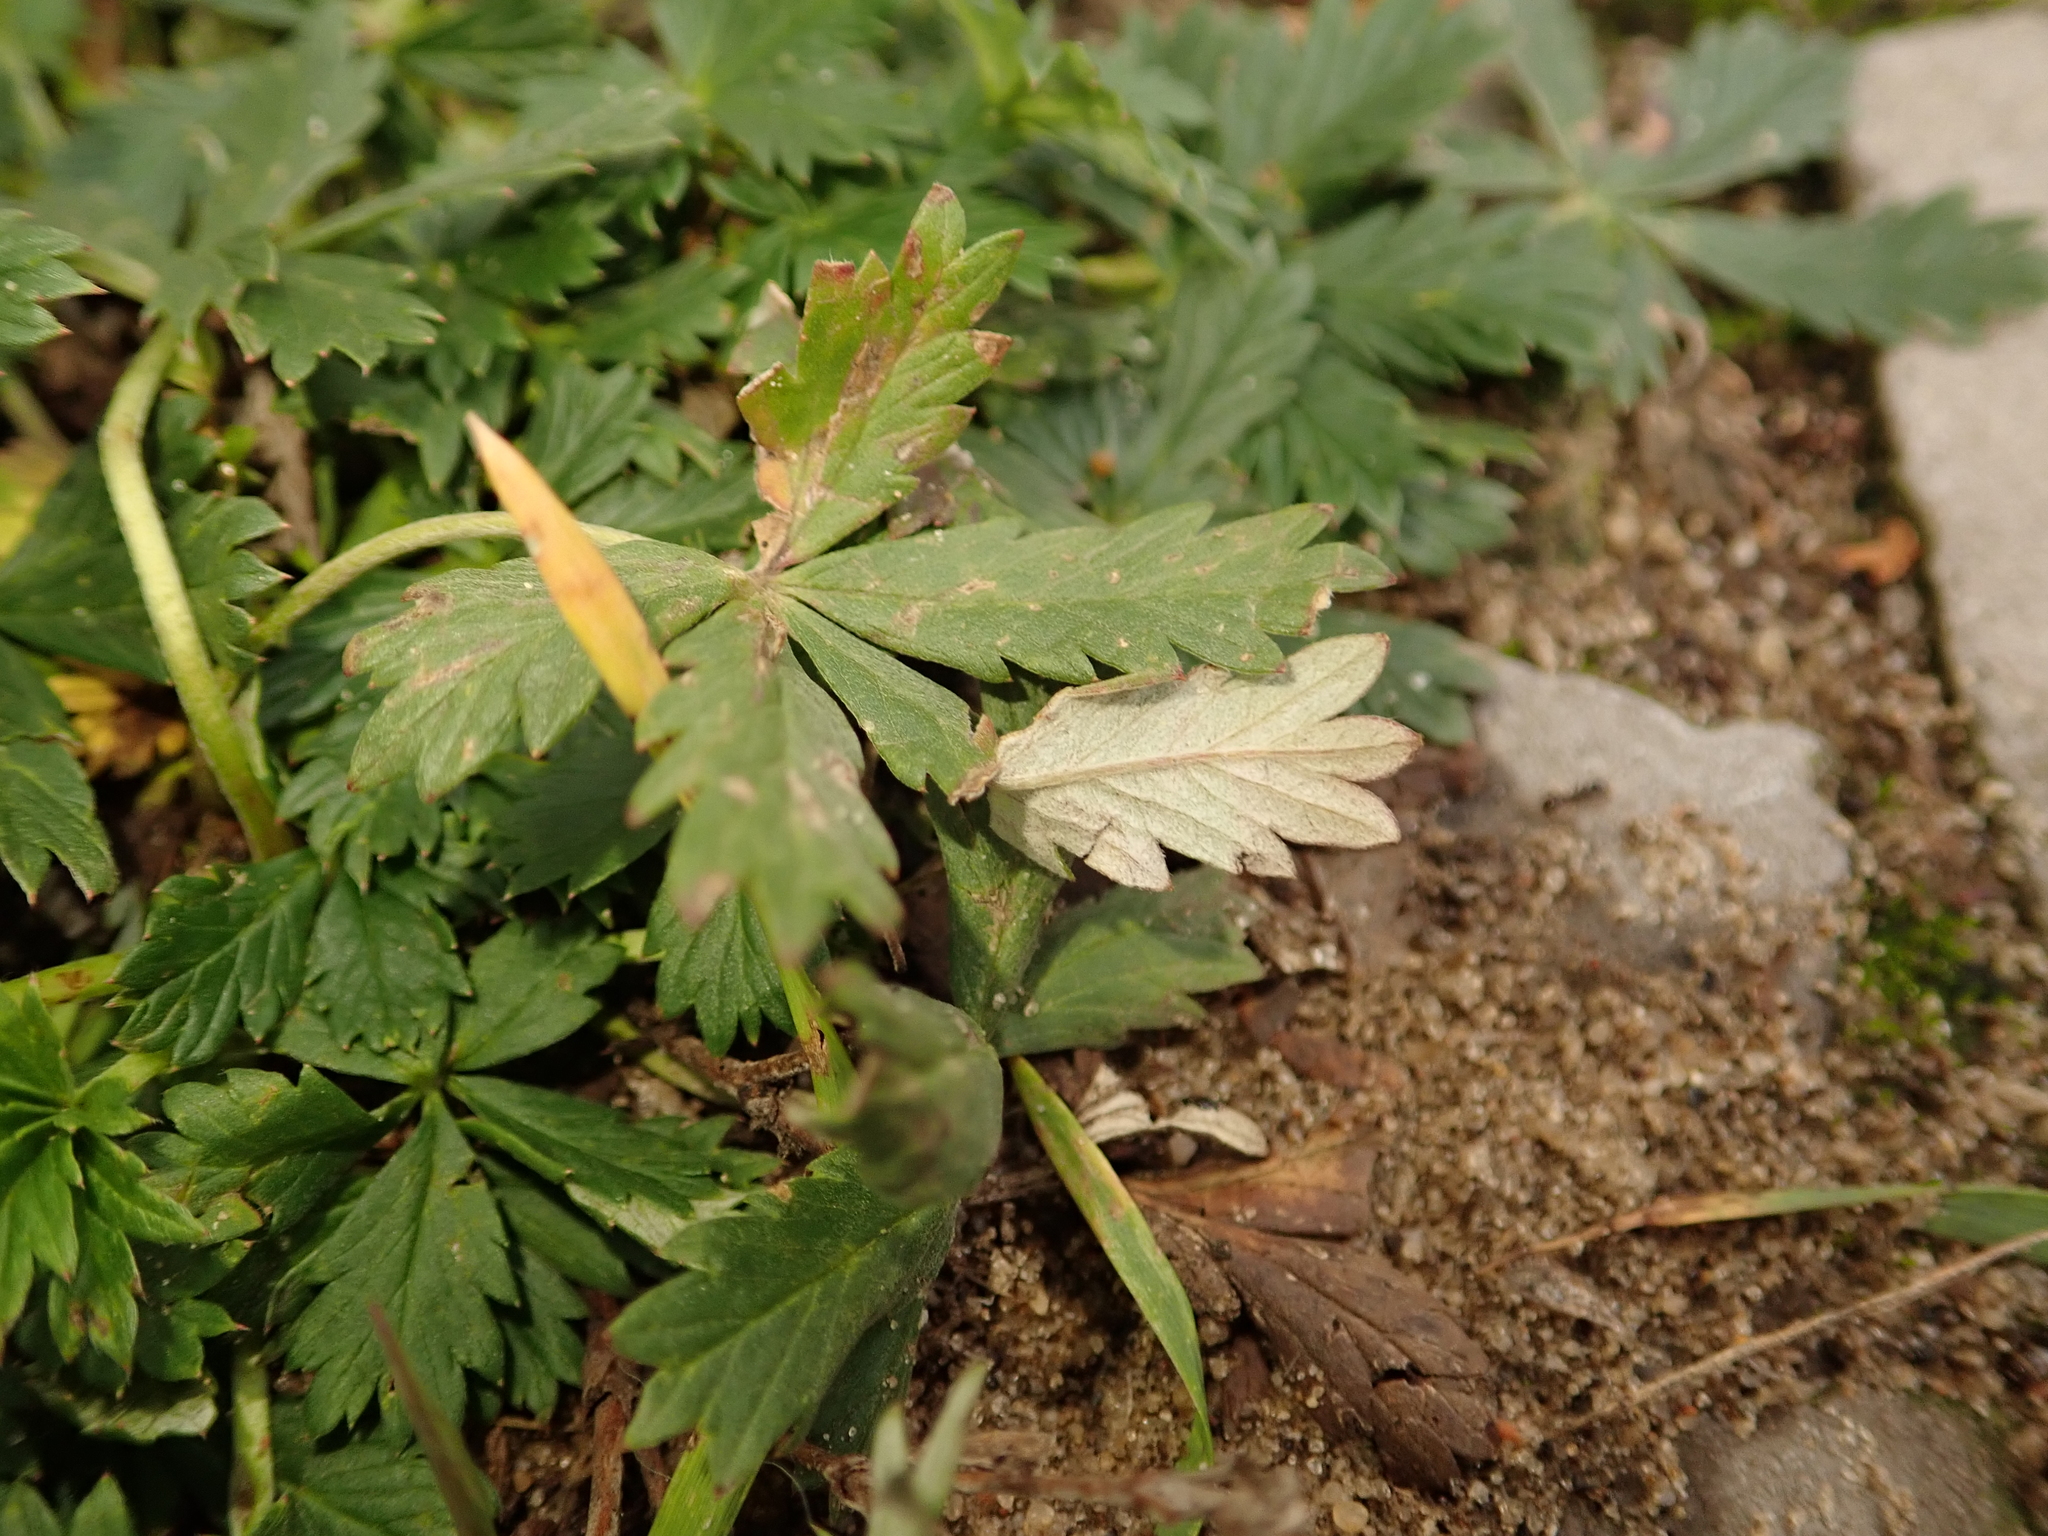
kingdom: Plantae
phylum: Tracheophyta
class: Magnoliopsida
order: Rosales
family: Rosaceae
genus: Potentilla
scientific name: Potentilla argentea
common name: Hoary cinquefoil
